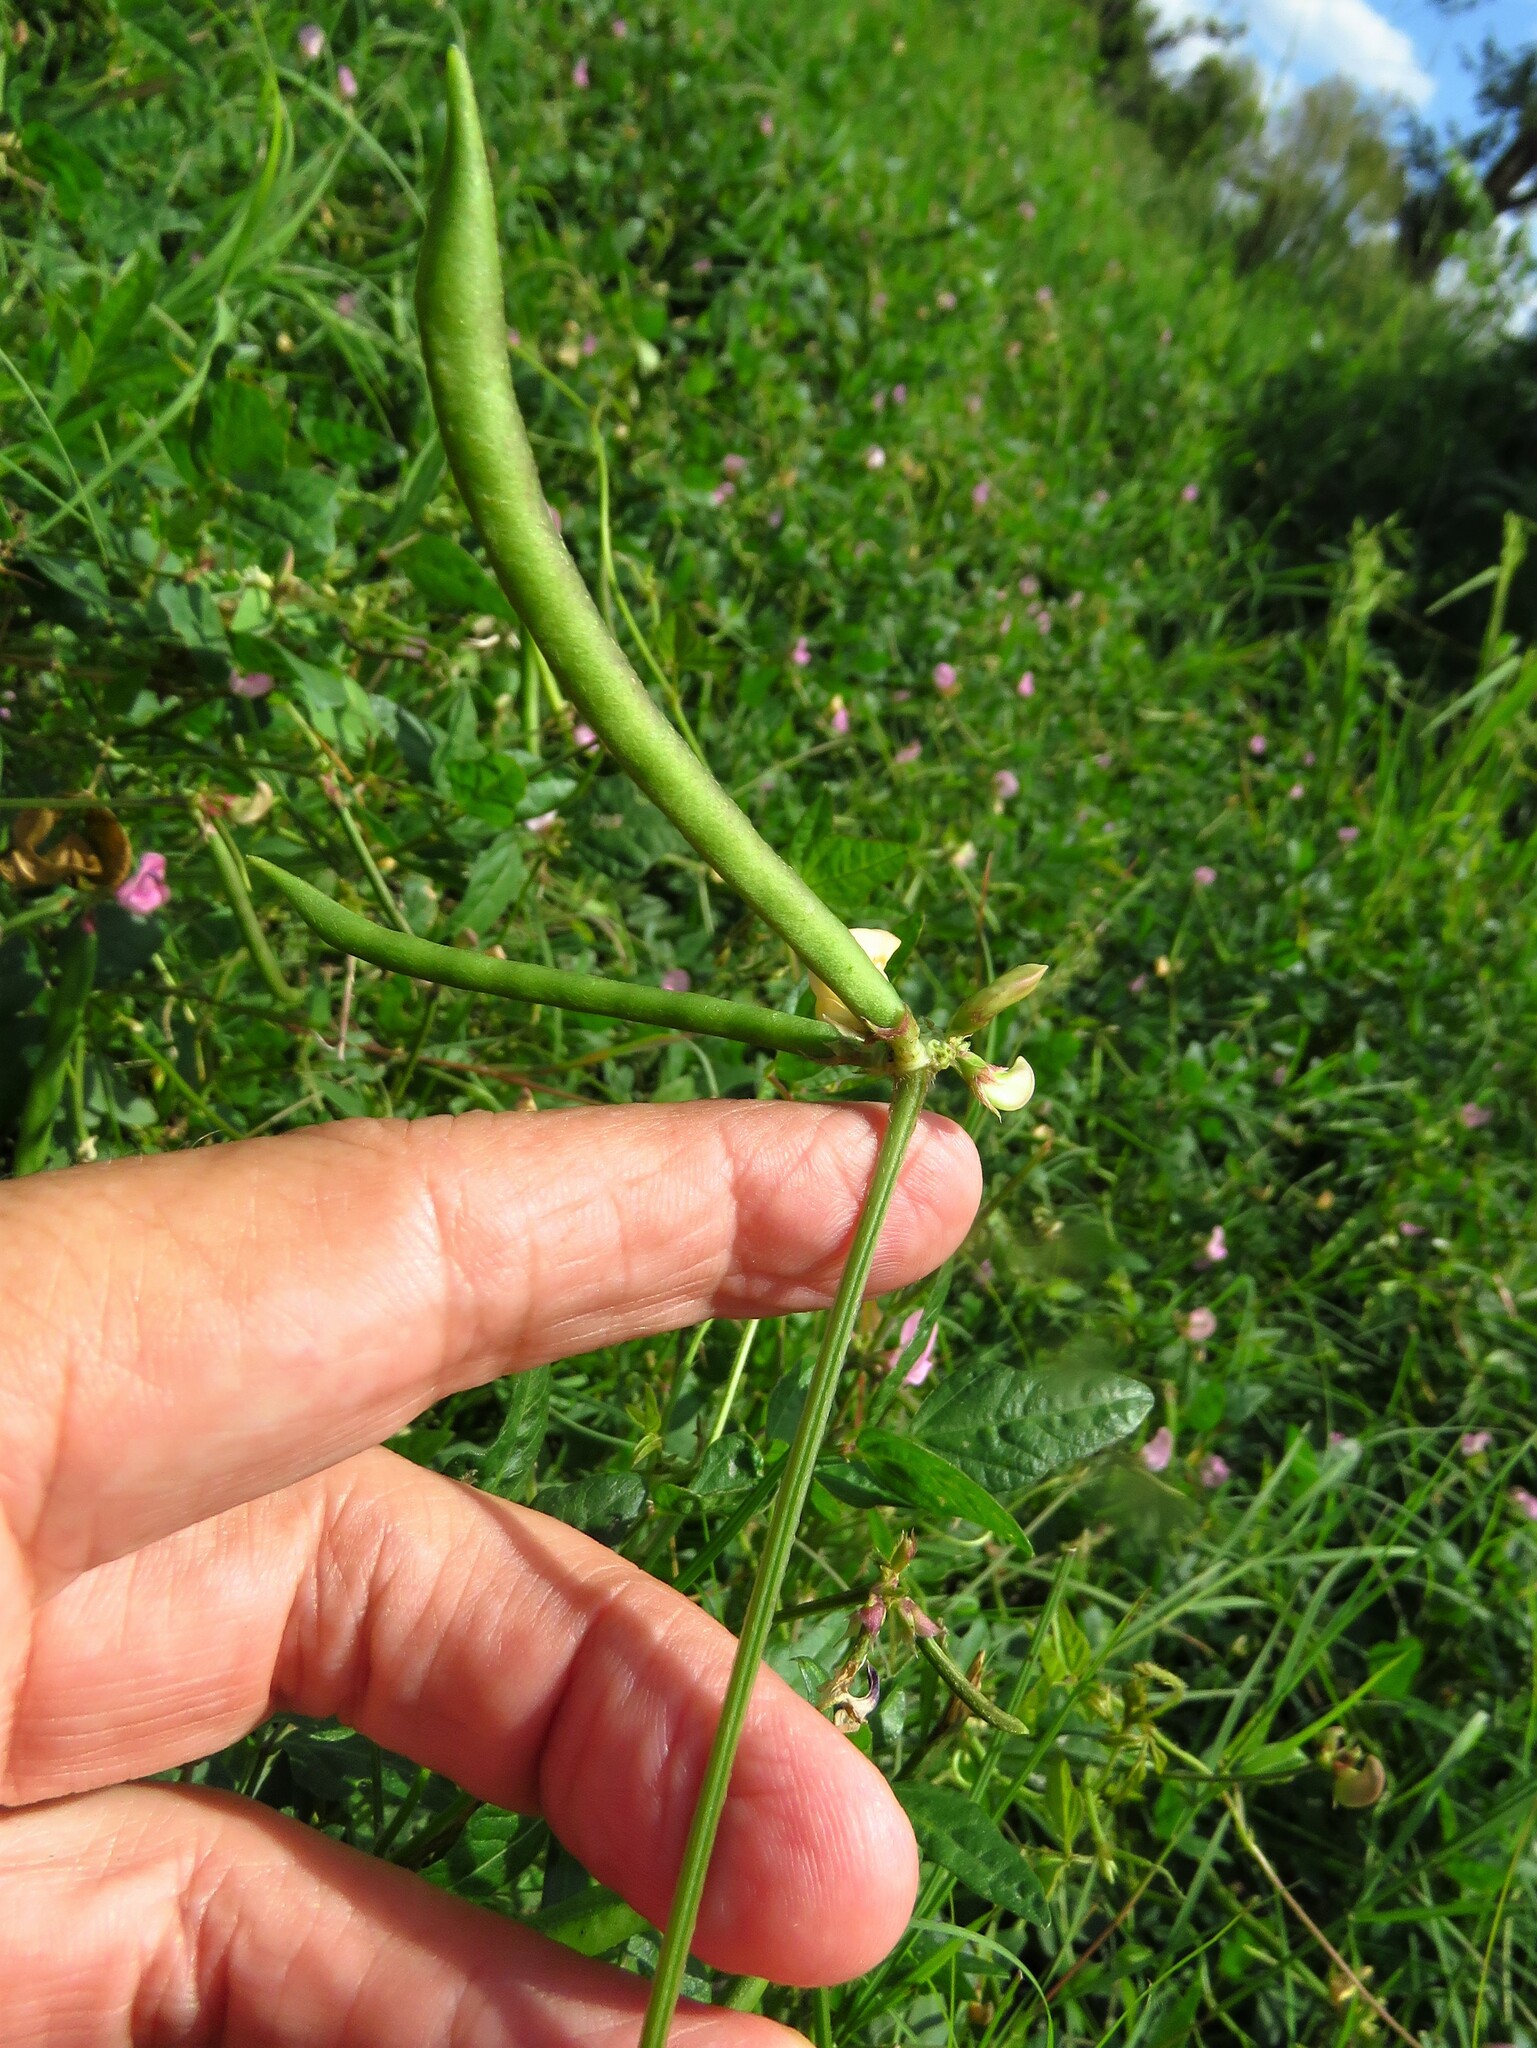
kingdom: Plantae
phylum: Tracheophyta
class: Magnoliopsida
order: Fabales
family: Fabaceae
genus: Strophostyles
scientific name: Strophostyles helvola
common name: Trailing wild bean
